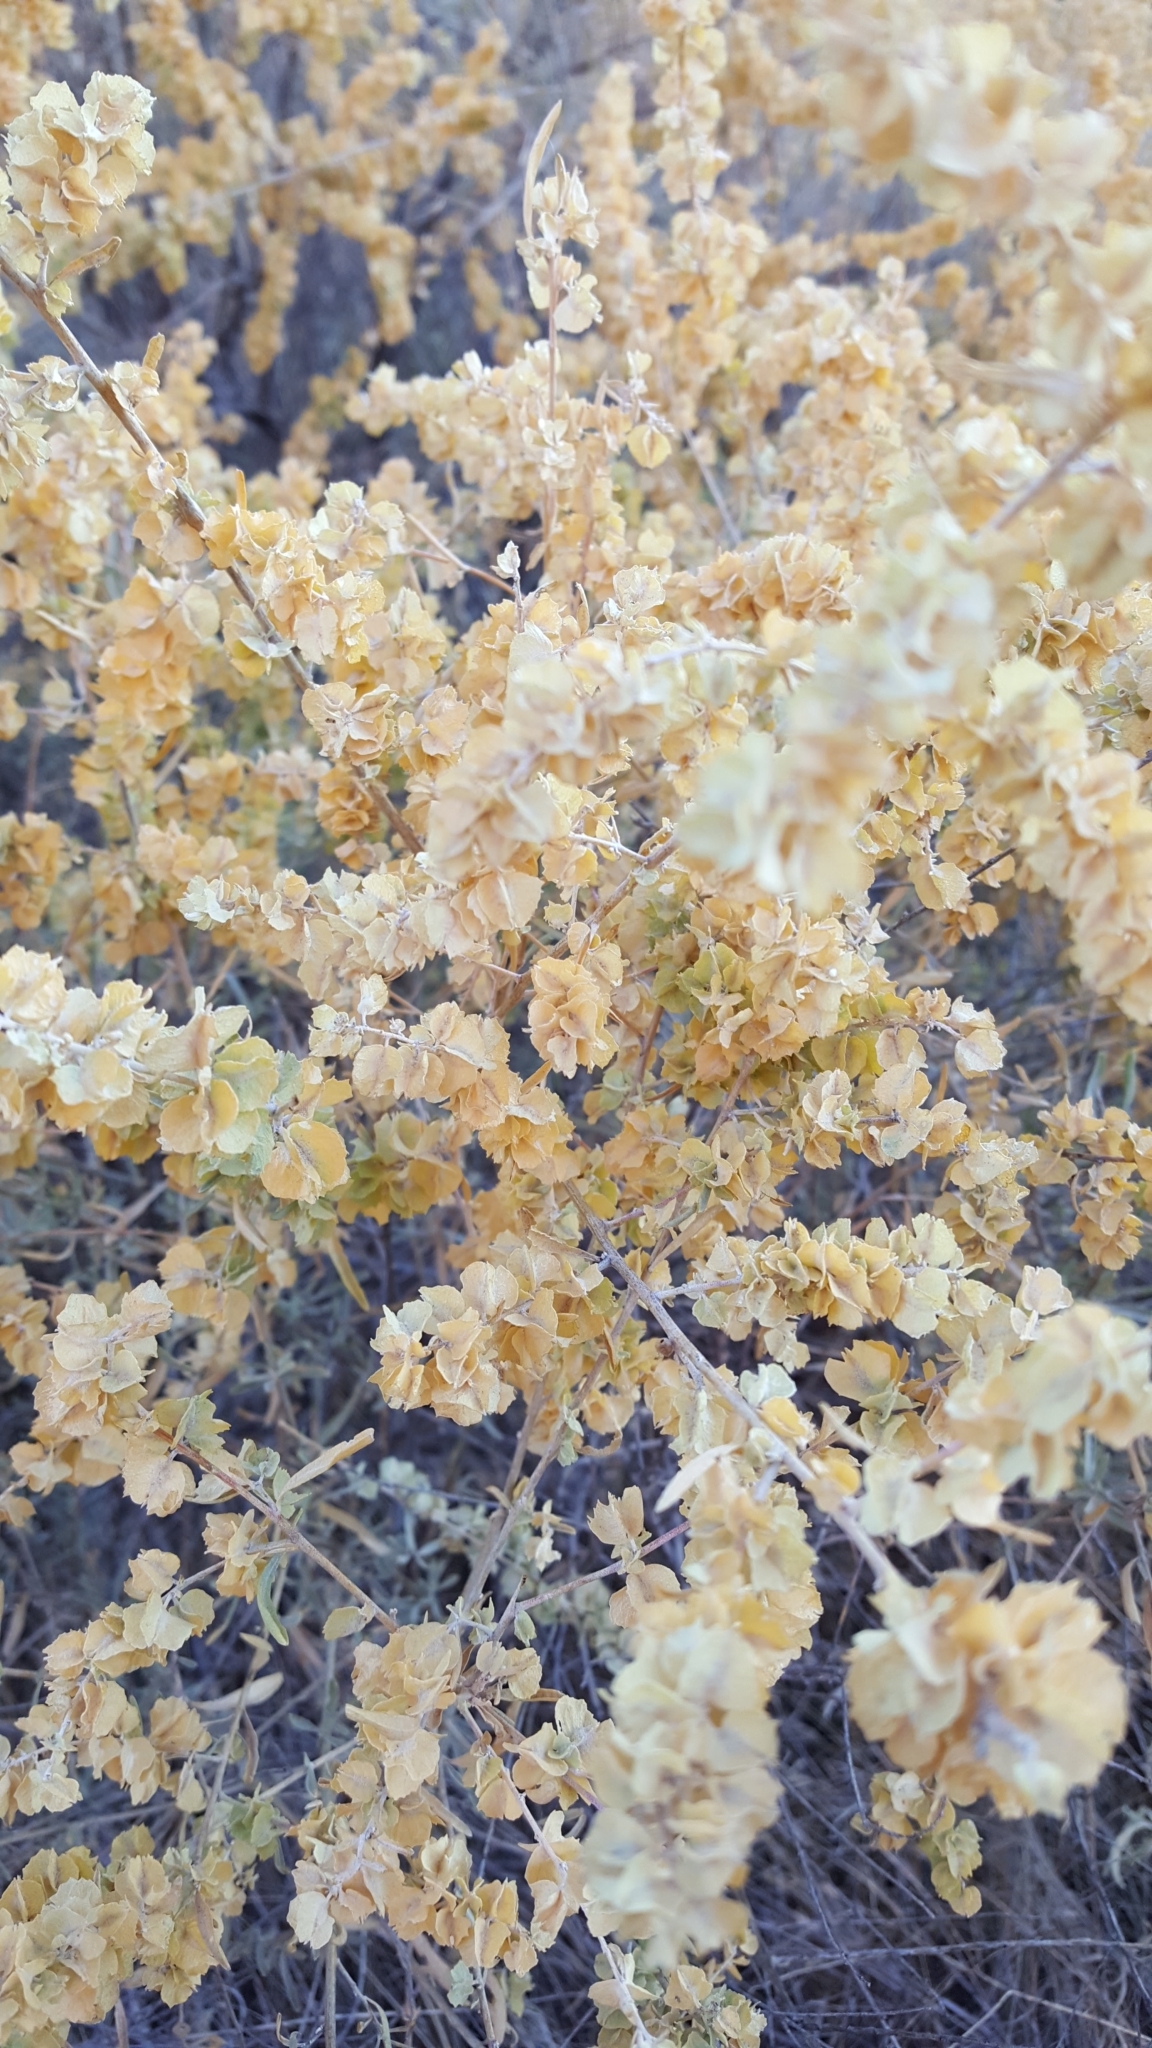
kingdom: Plantae
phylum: Tracheophyta
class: Magnoliopsida
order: Caryophyllales
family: Amaranthaceae
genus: Atriplex
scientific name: Atriplex canescens
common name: Four-wing saltbush
